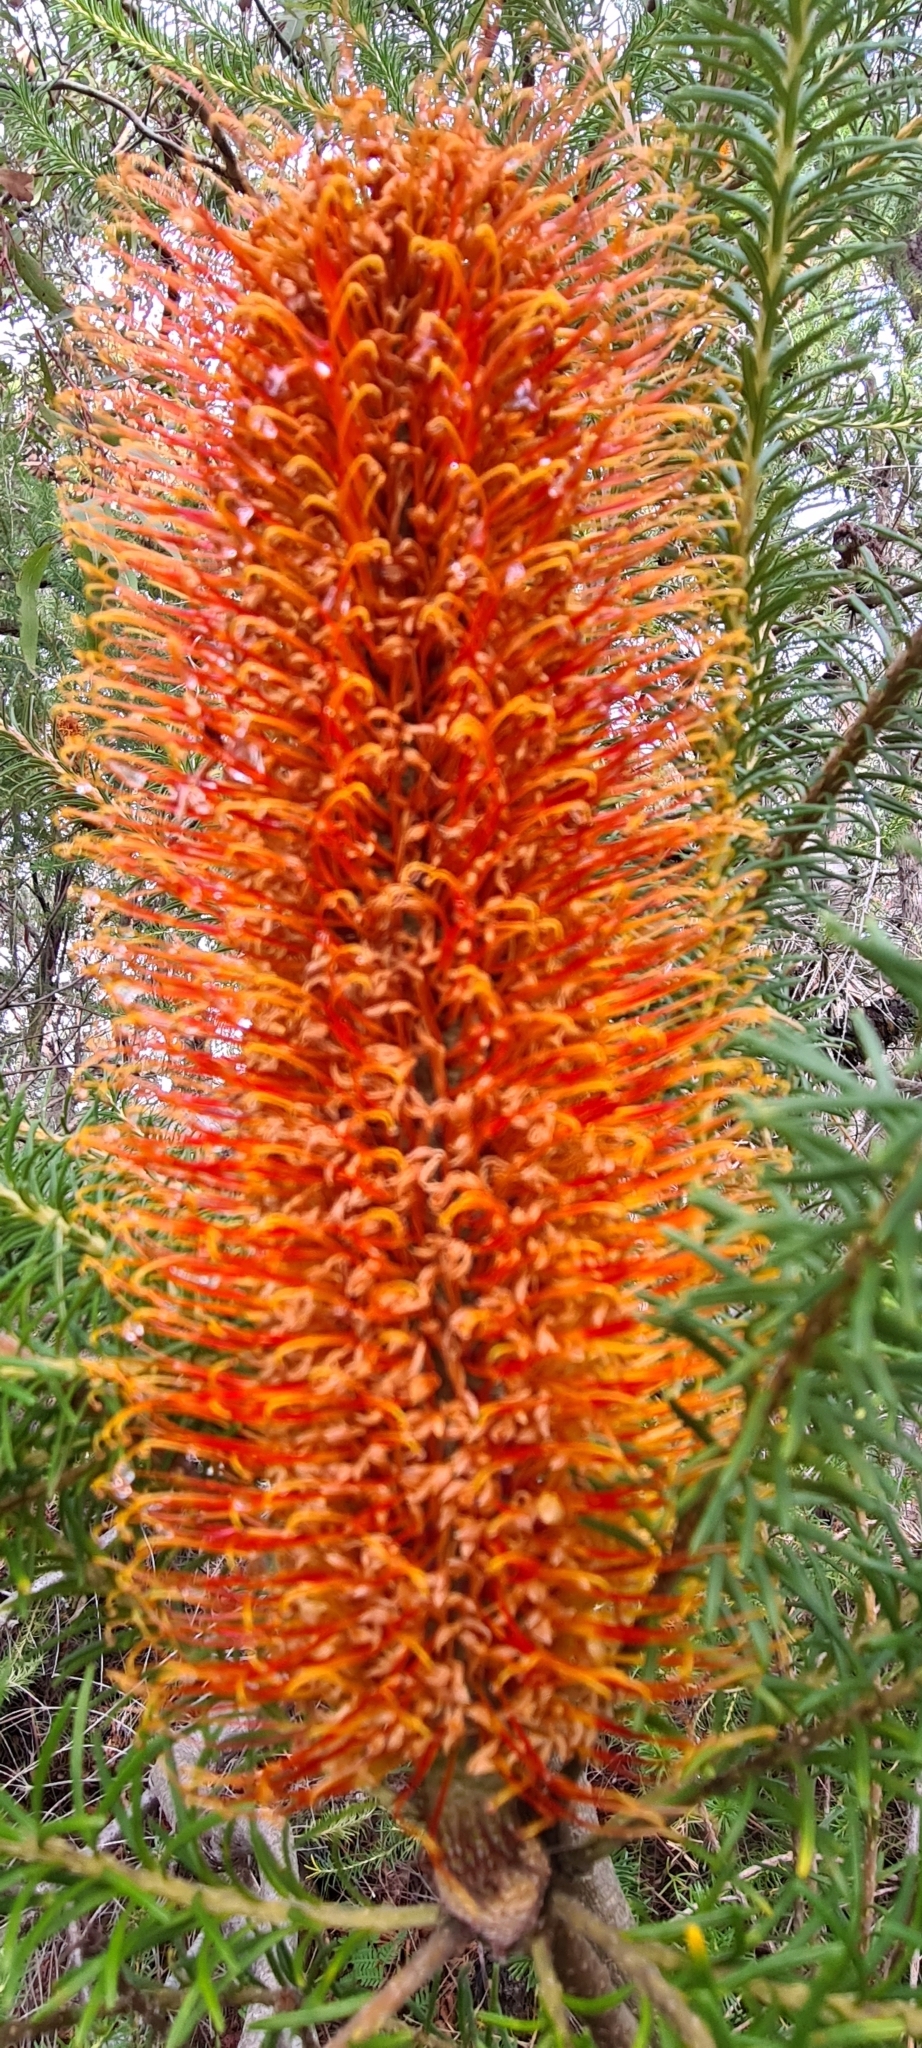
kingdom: Plantae
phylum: Tracheophyta
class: Magnoliopsida
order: Proteales
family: Proteaceae
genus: Banksia
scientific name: Banksia ericifolia
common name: Heath-leaf banksia
